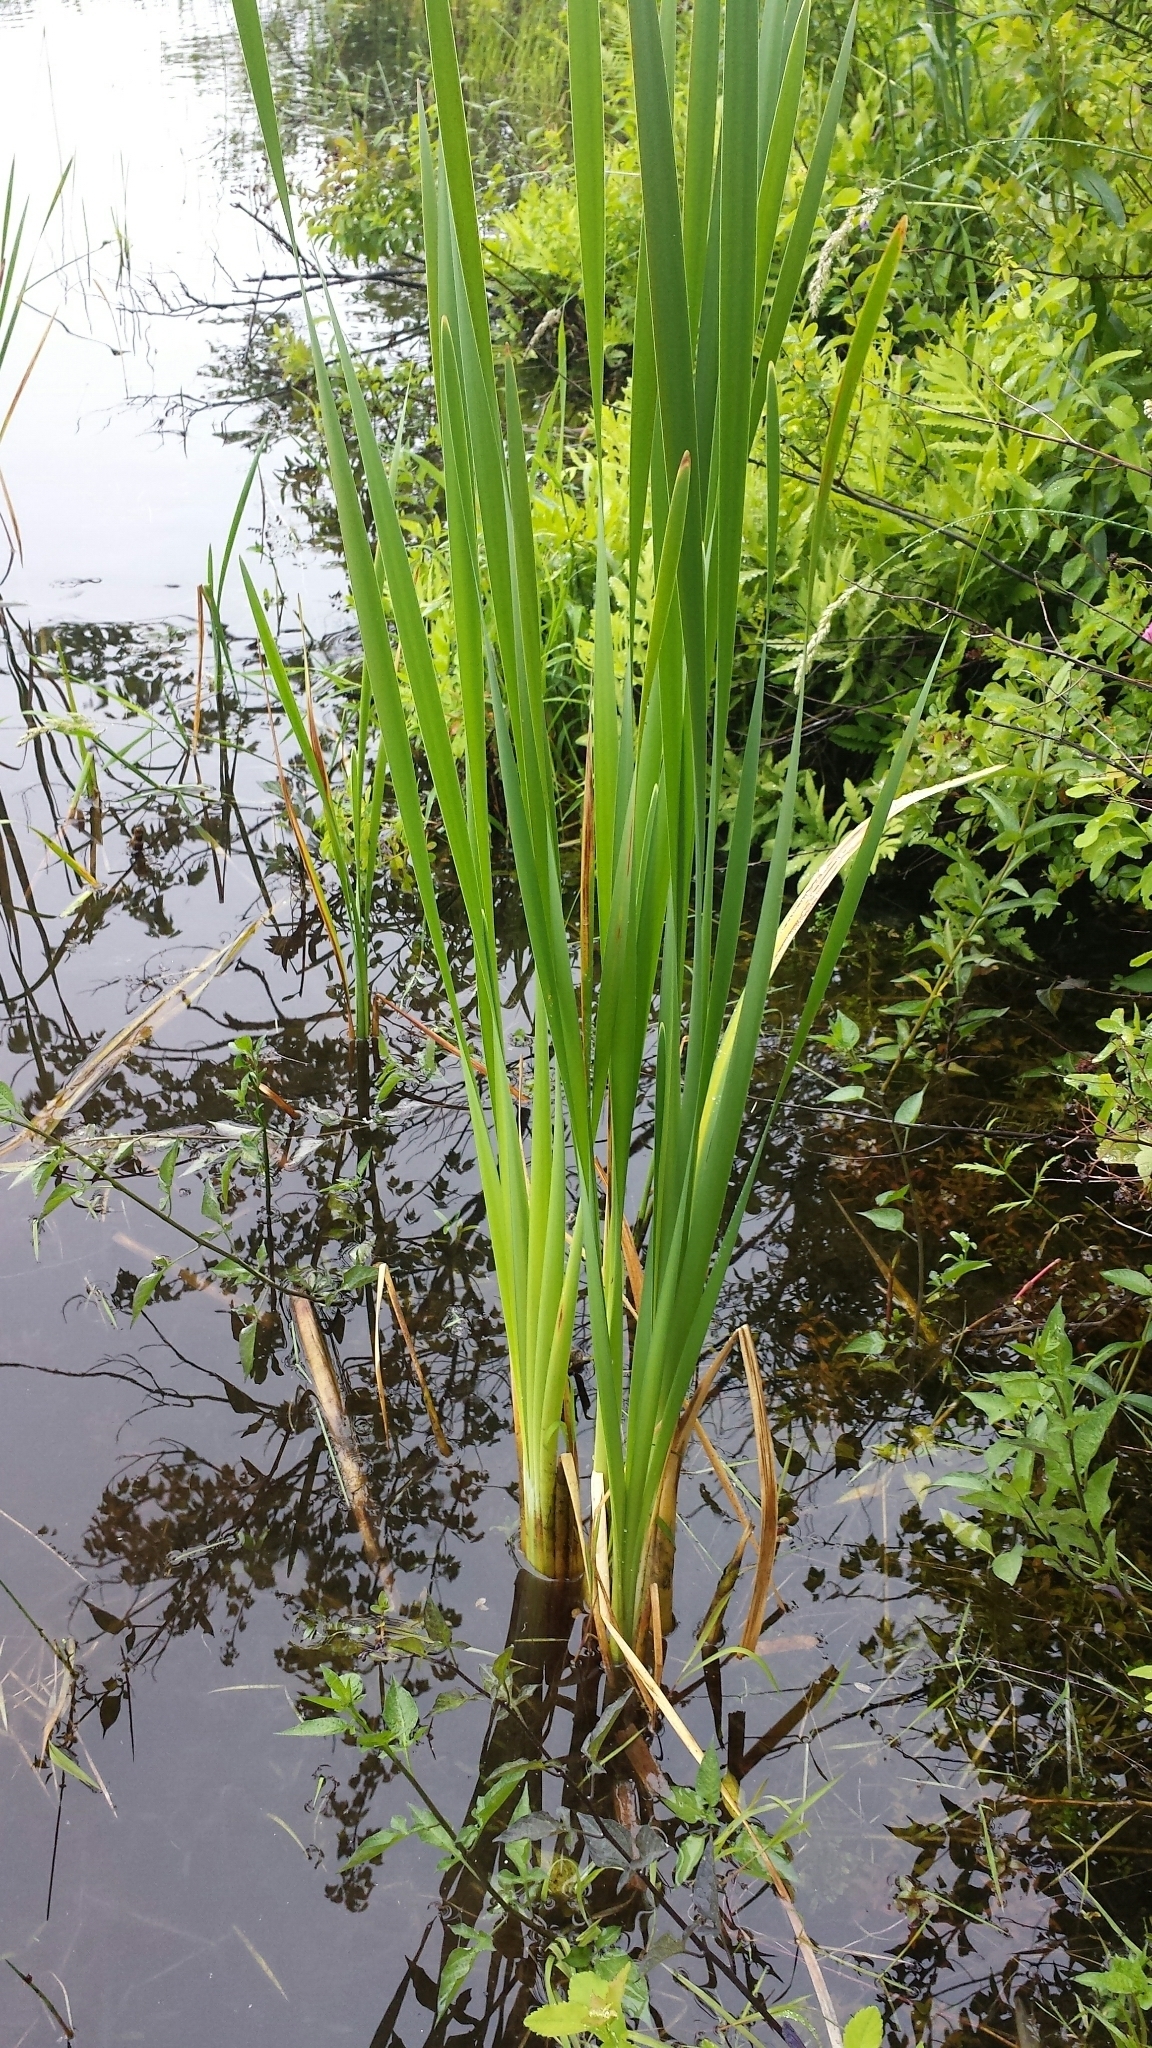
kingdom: Plantae
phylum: Tracheophyta
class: Liliopsida
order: Poales
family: Typhaceae
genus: Typha
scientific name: Typha latifolia
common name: Broadleaf cattail
